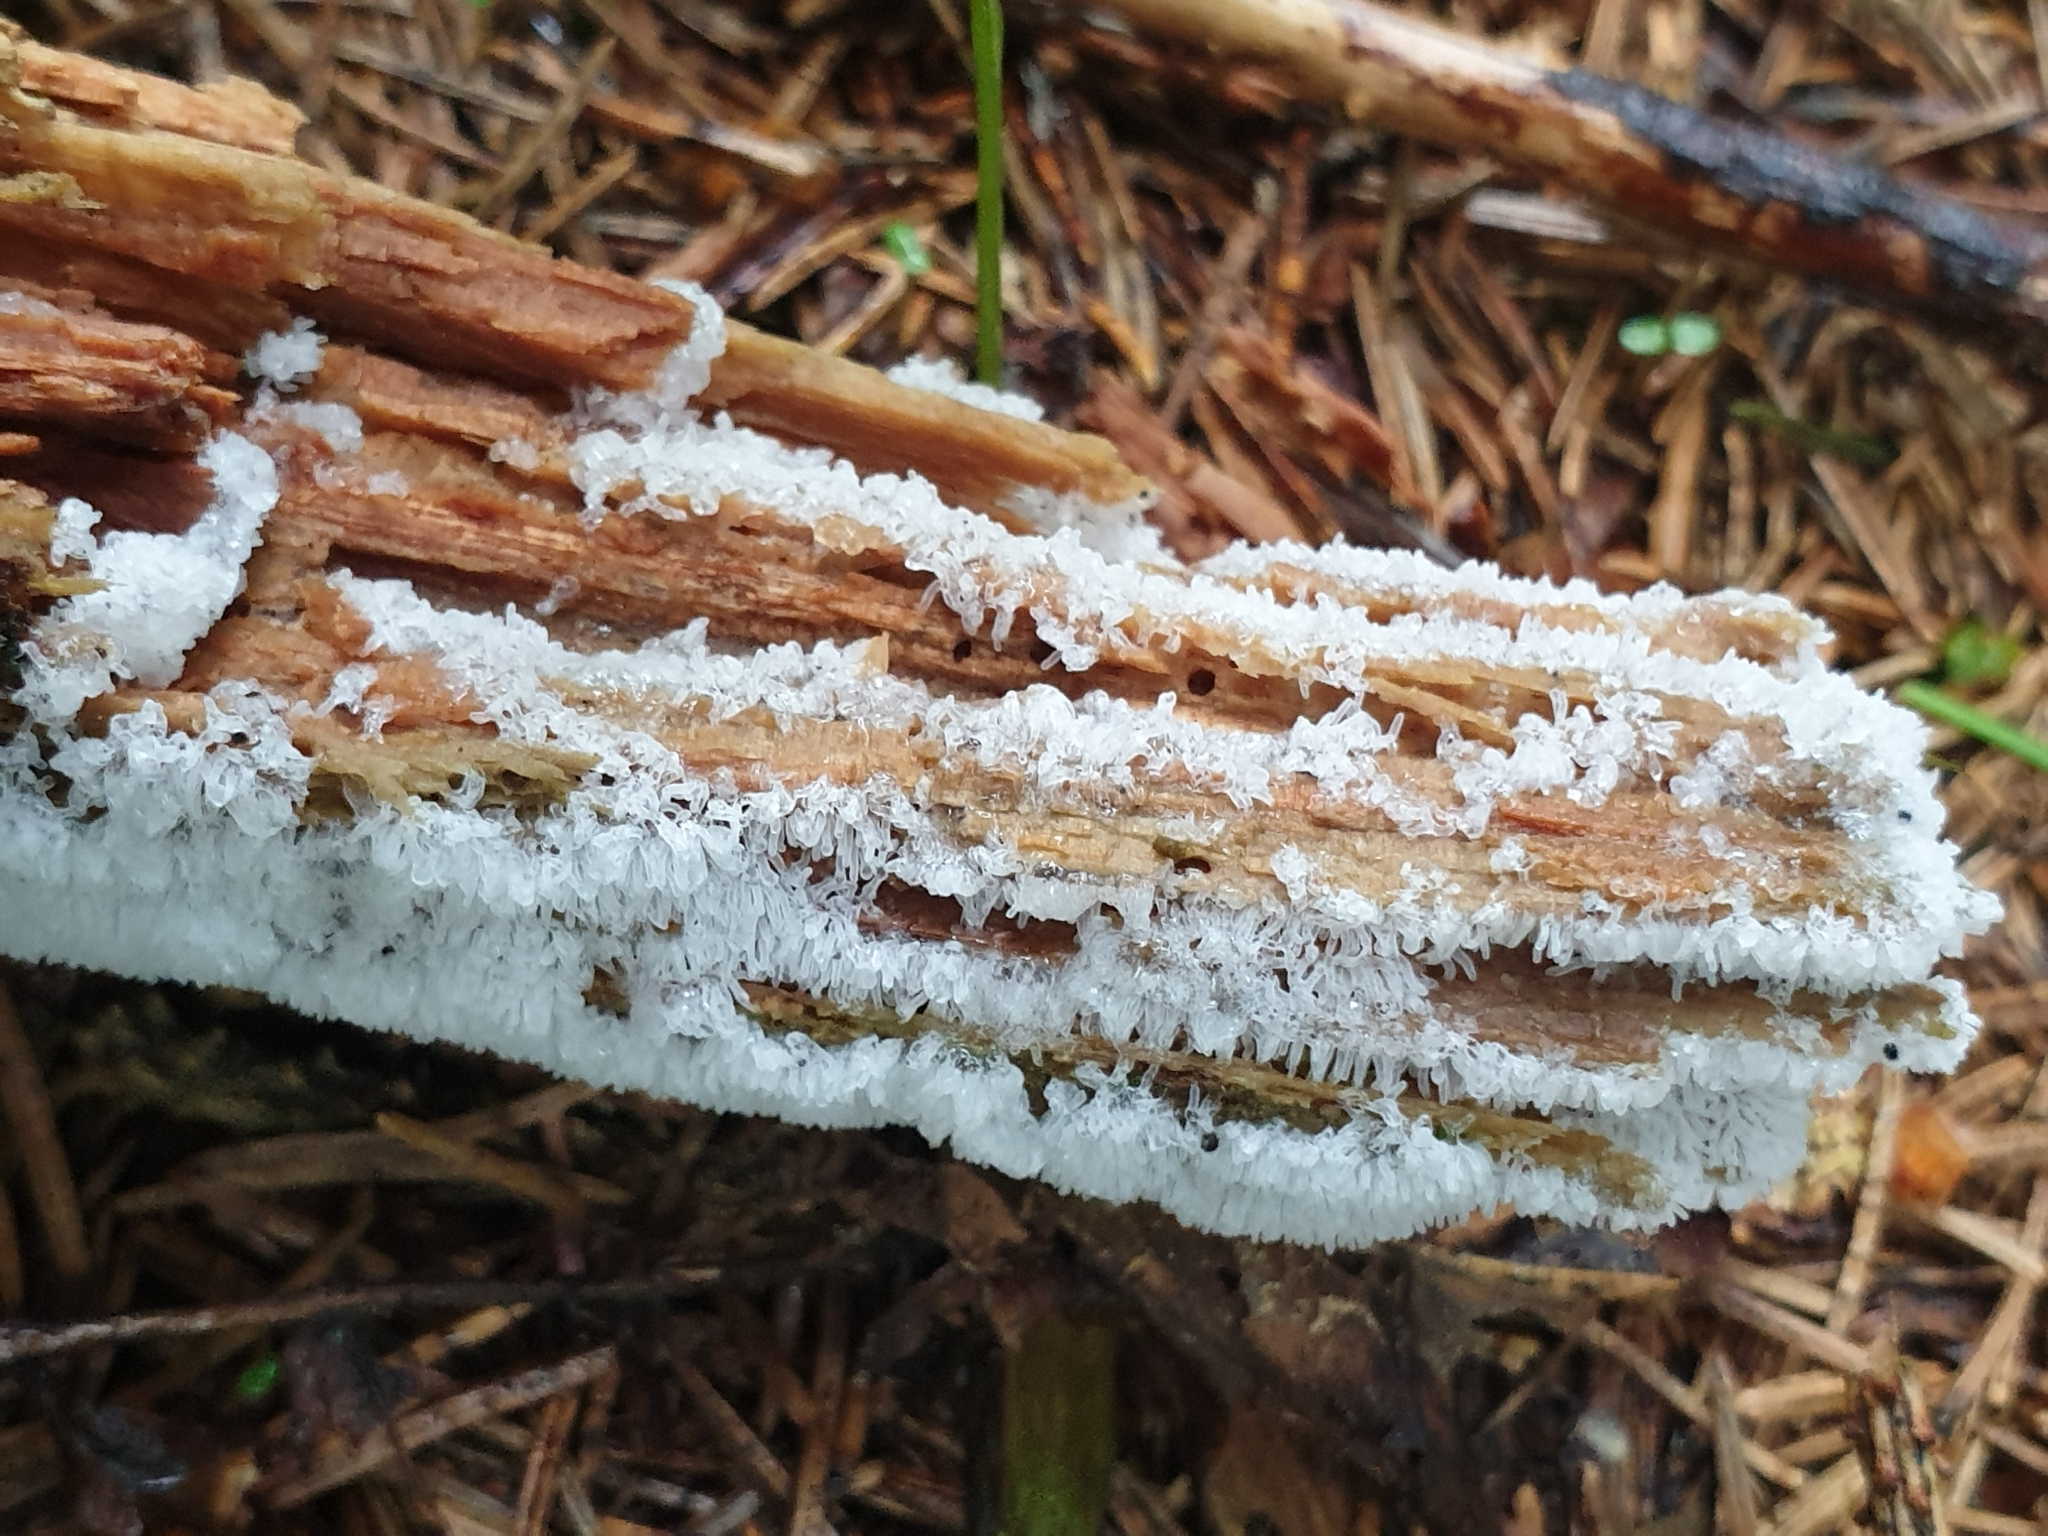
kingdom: Protozoa
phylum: Mycetozoa
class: Protosteliomycetes
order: Ceratiomyxales
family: Ceratiomyxaceae
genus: Ceratiomyxa
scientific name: Ceratiomyxa fruticulosa
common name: Honeycomb coral slime mold
